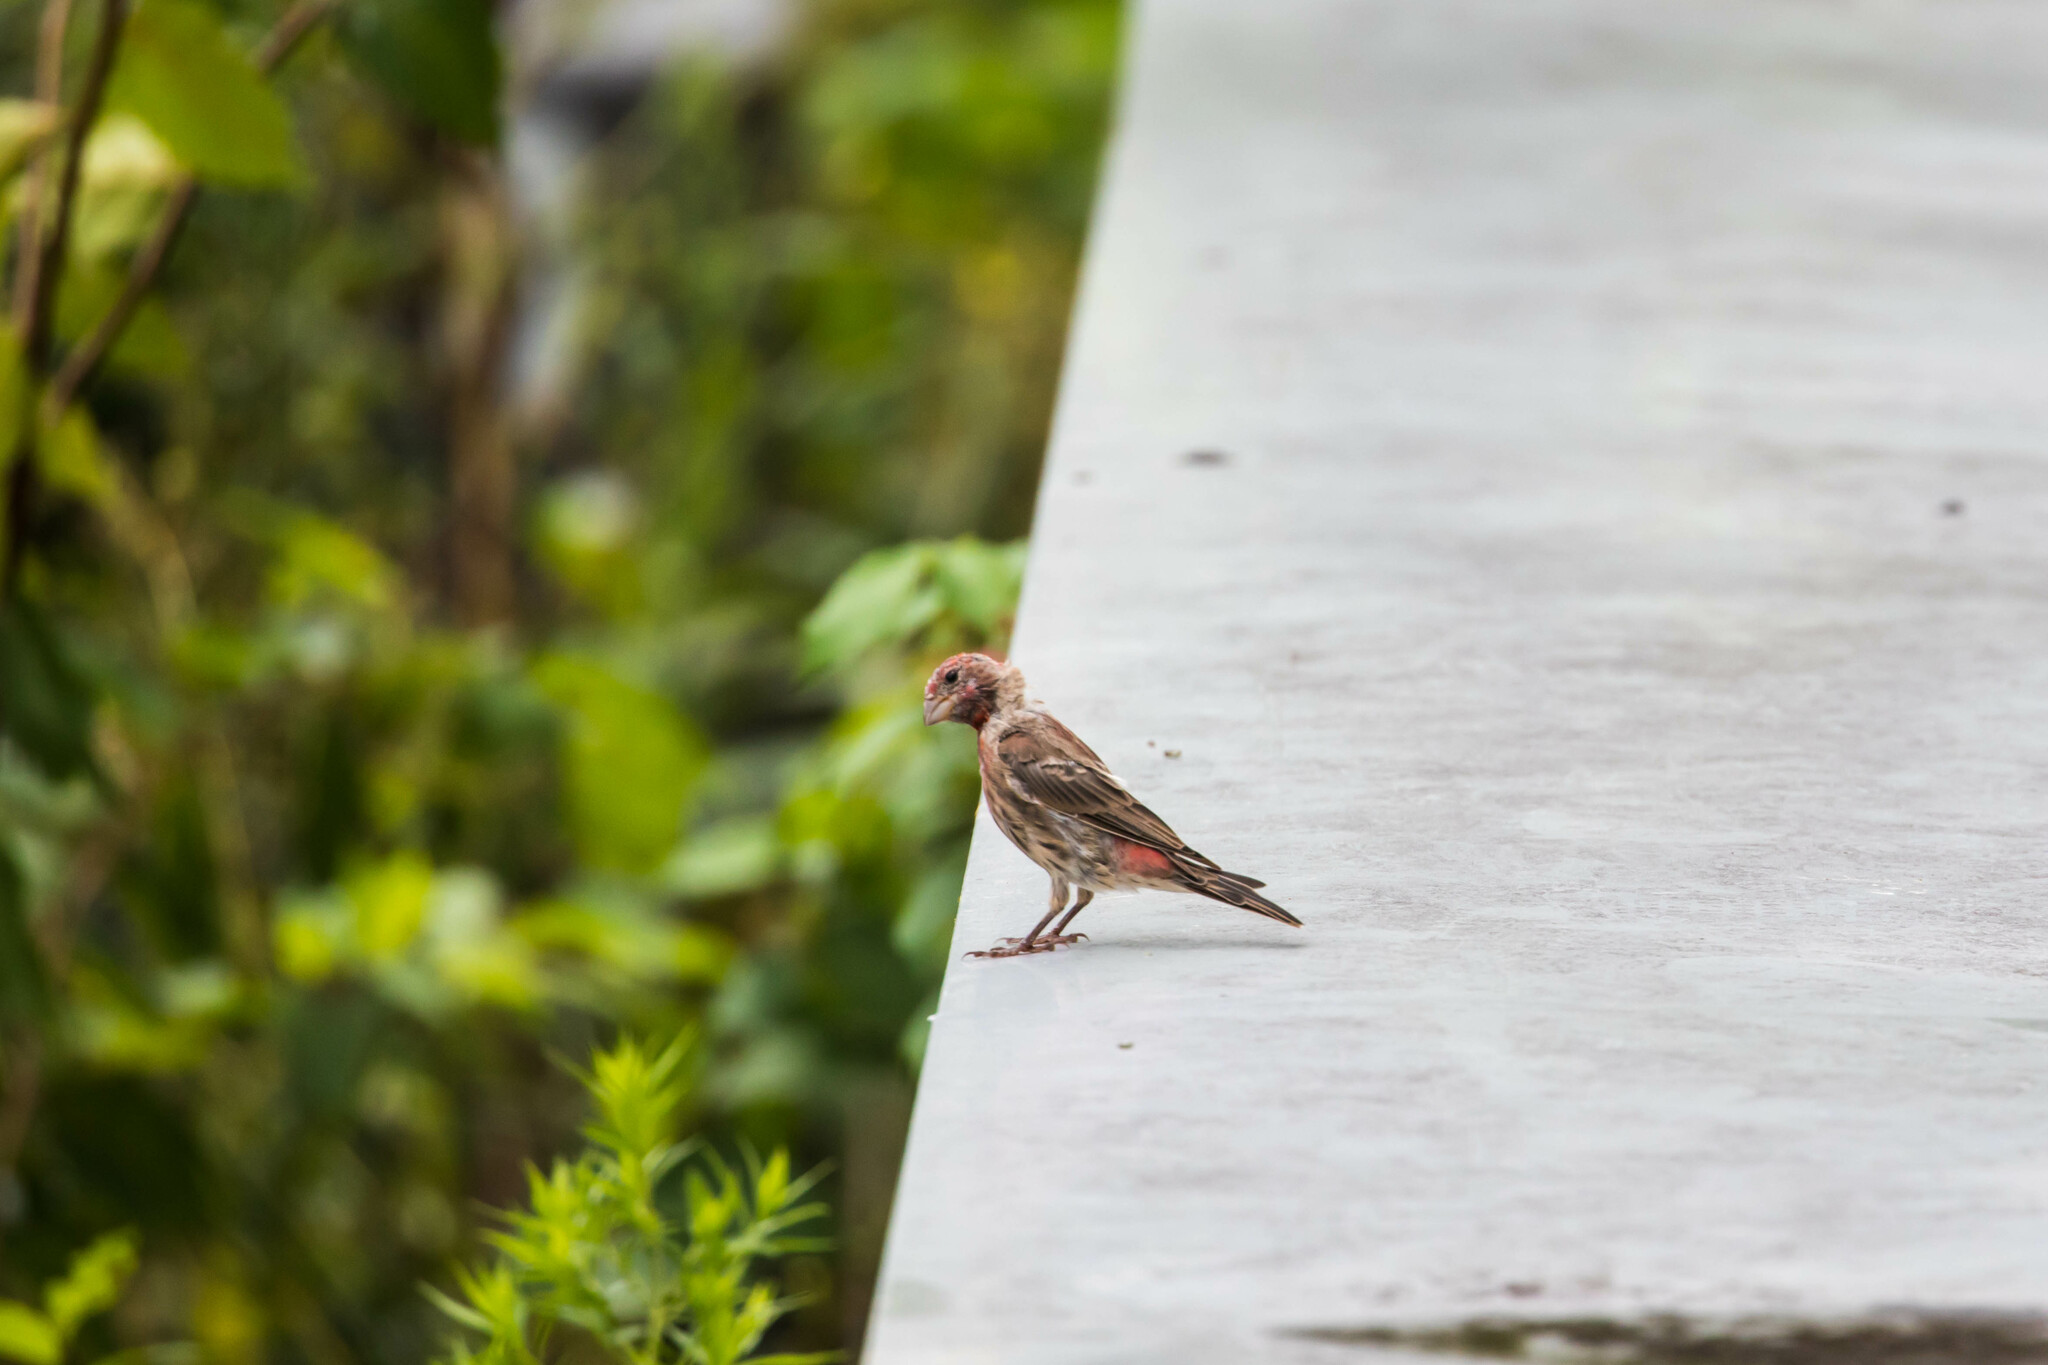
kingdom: Animalia
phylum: Chordata
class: Aves
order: Passeriformes
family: Fringillidae
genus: Haemorhous
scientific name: Haemorhous mexicanus
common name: House finch
